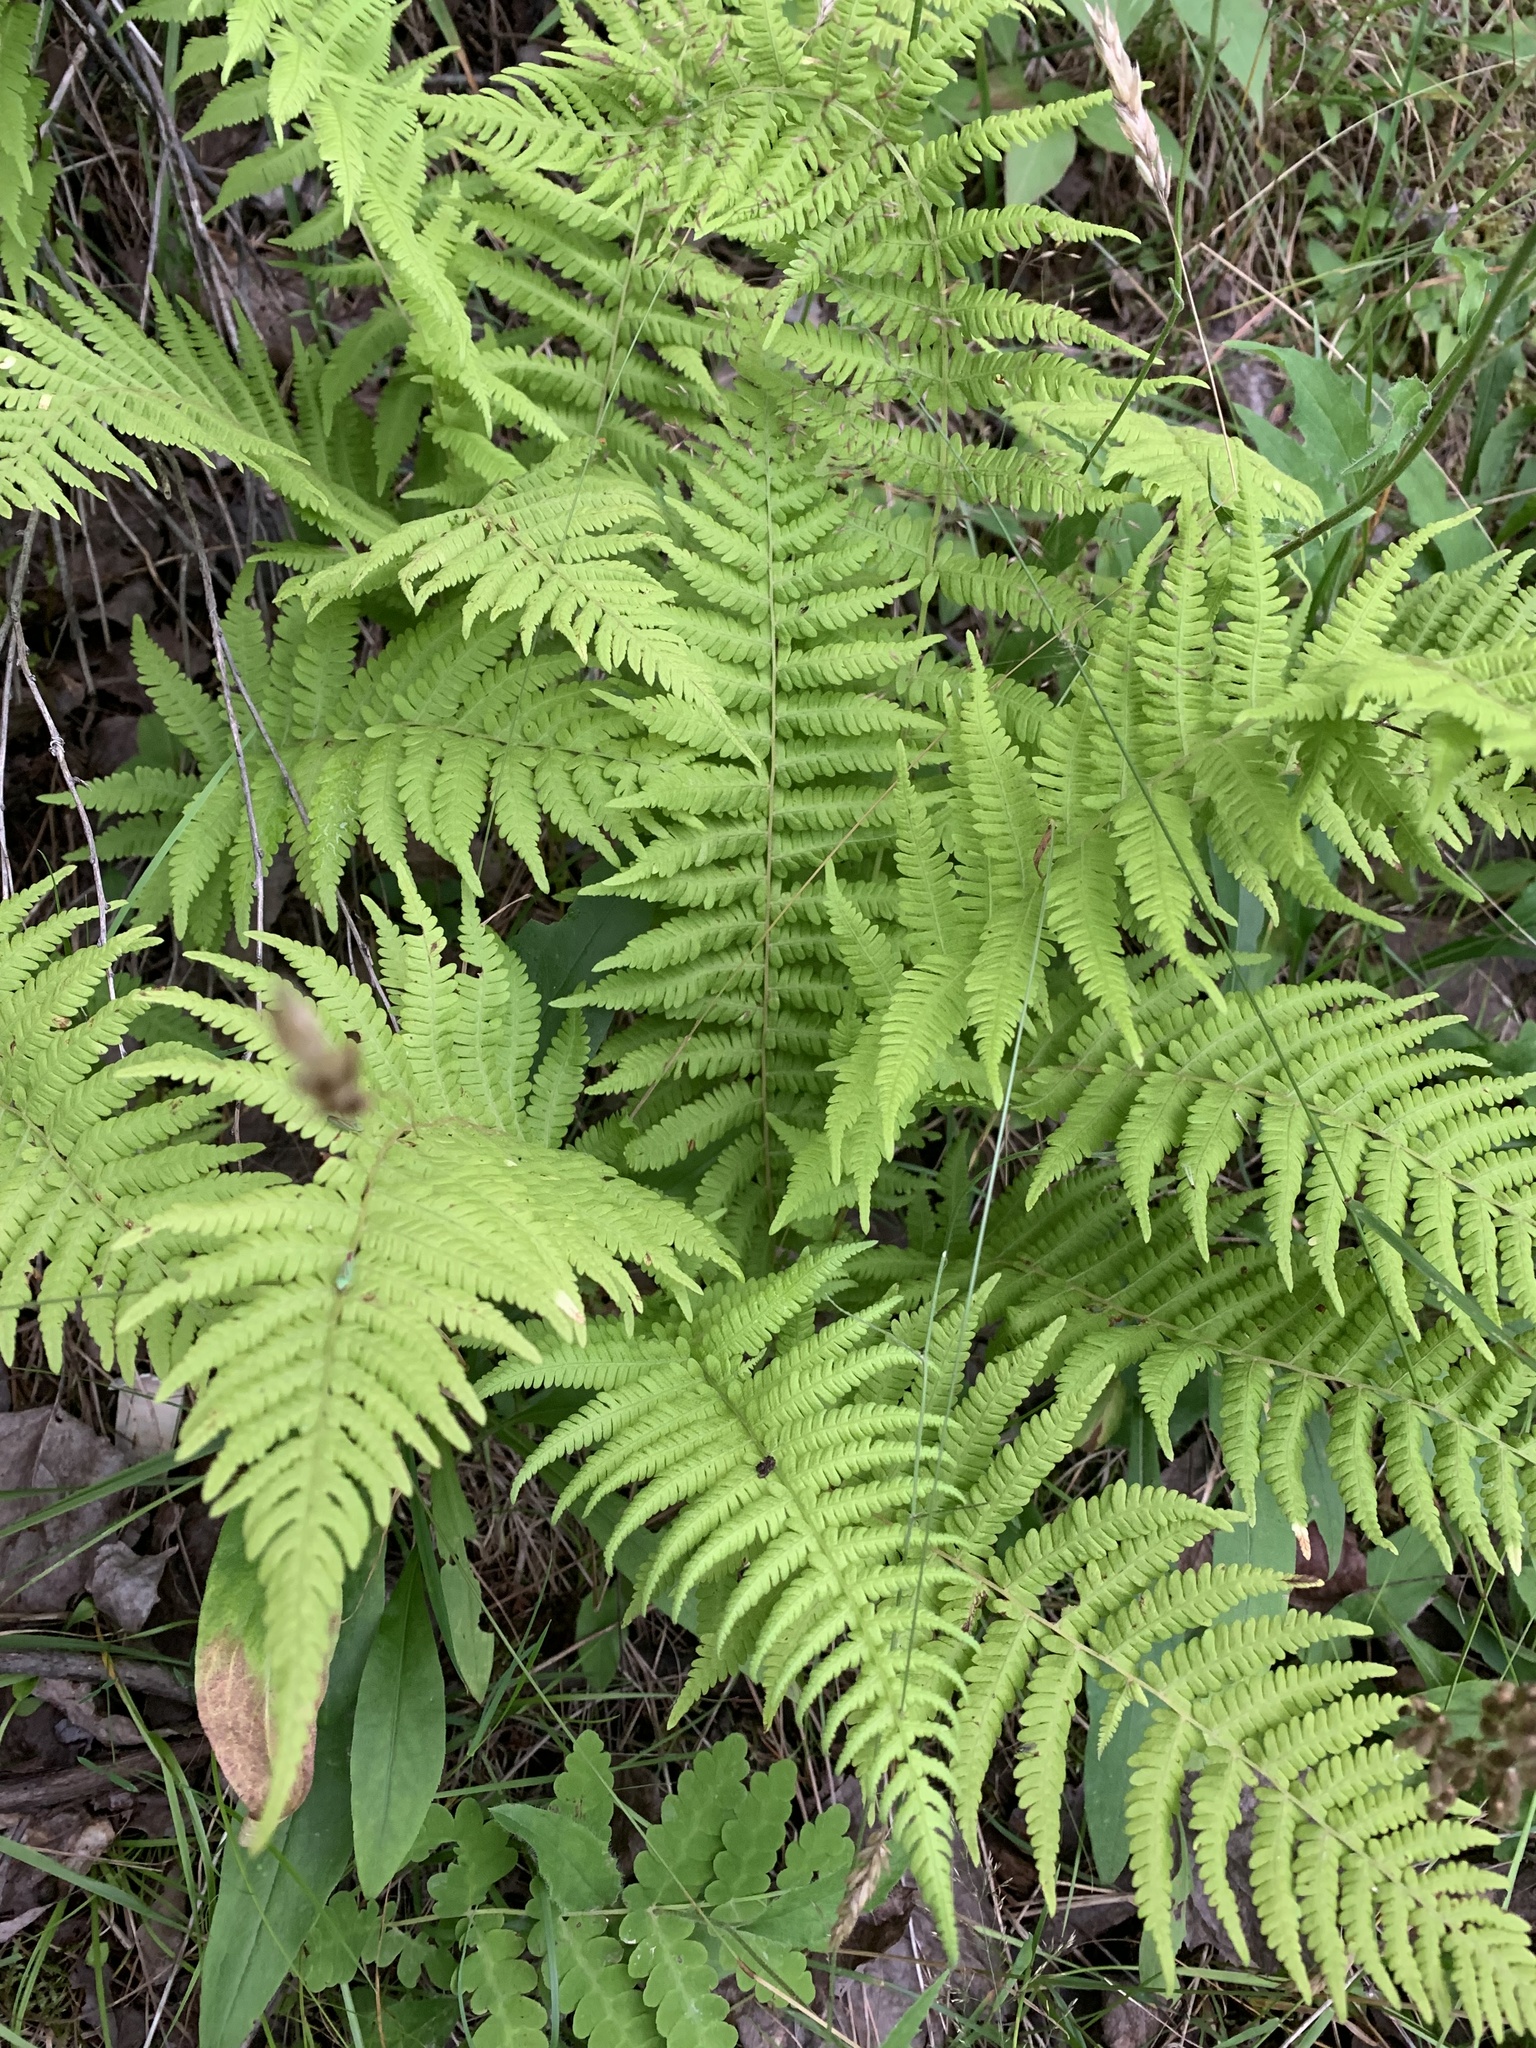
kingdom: Plantae
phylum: Tracheophyta
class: Polypodiopsida
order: Polypodiales
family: Thelypteridaceae
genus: Phegopteris
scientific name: Phegopteris connectilis
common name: Beech fern
